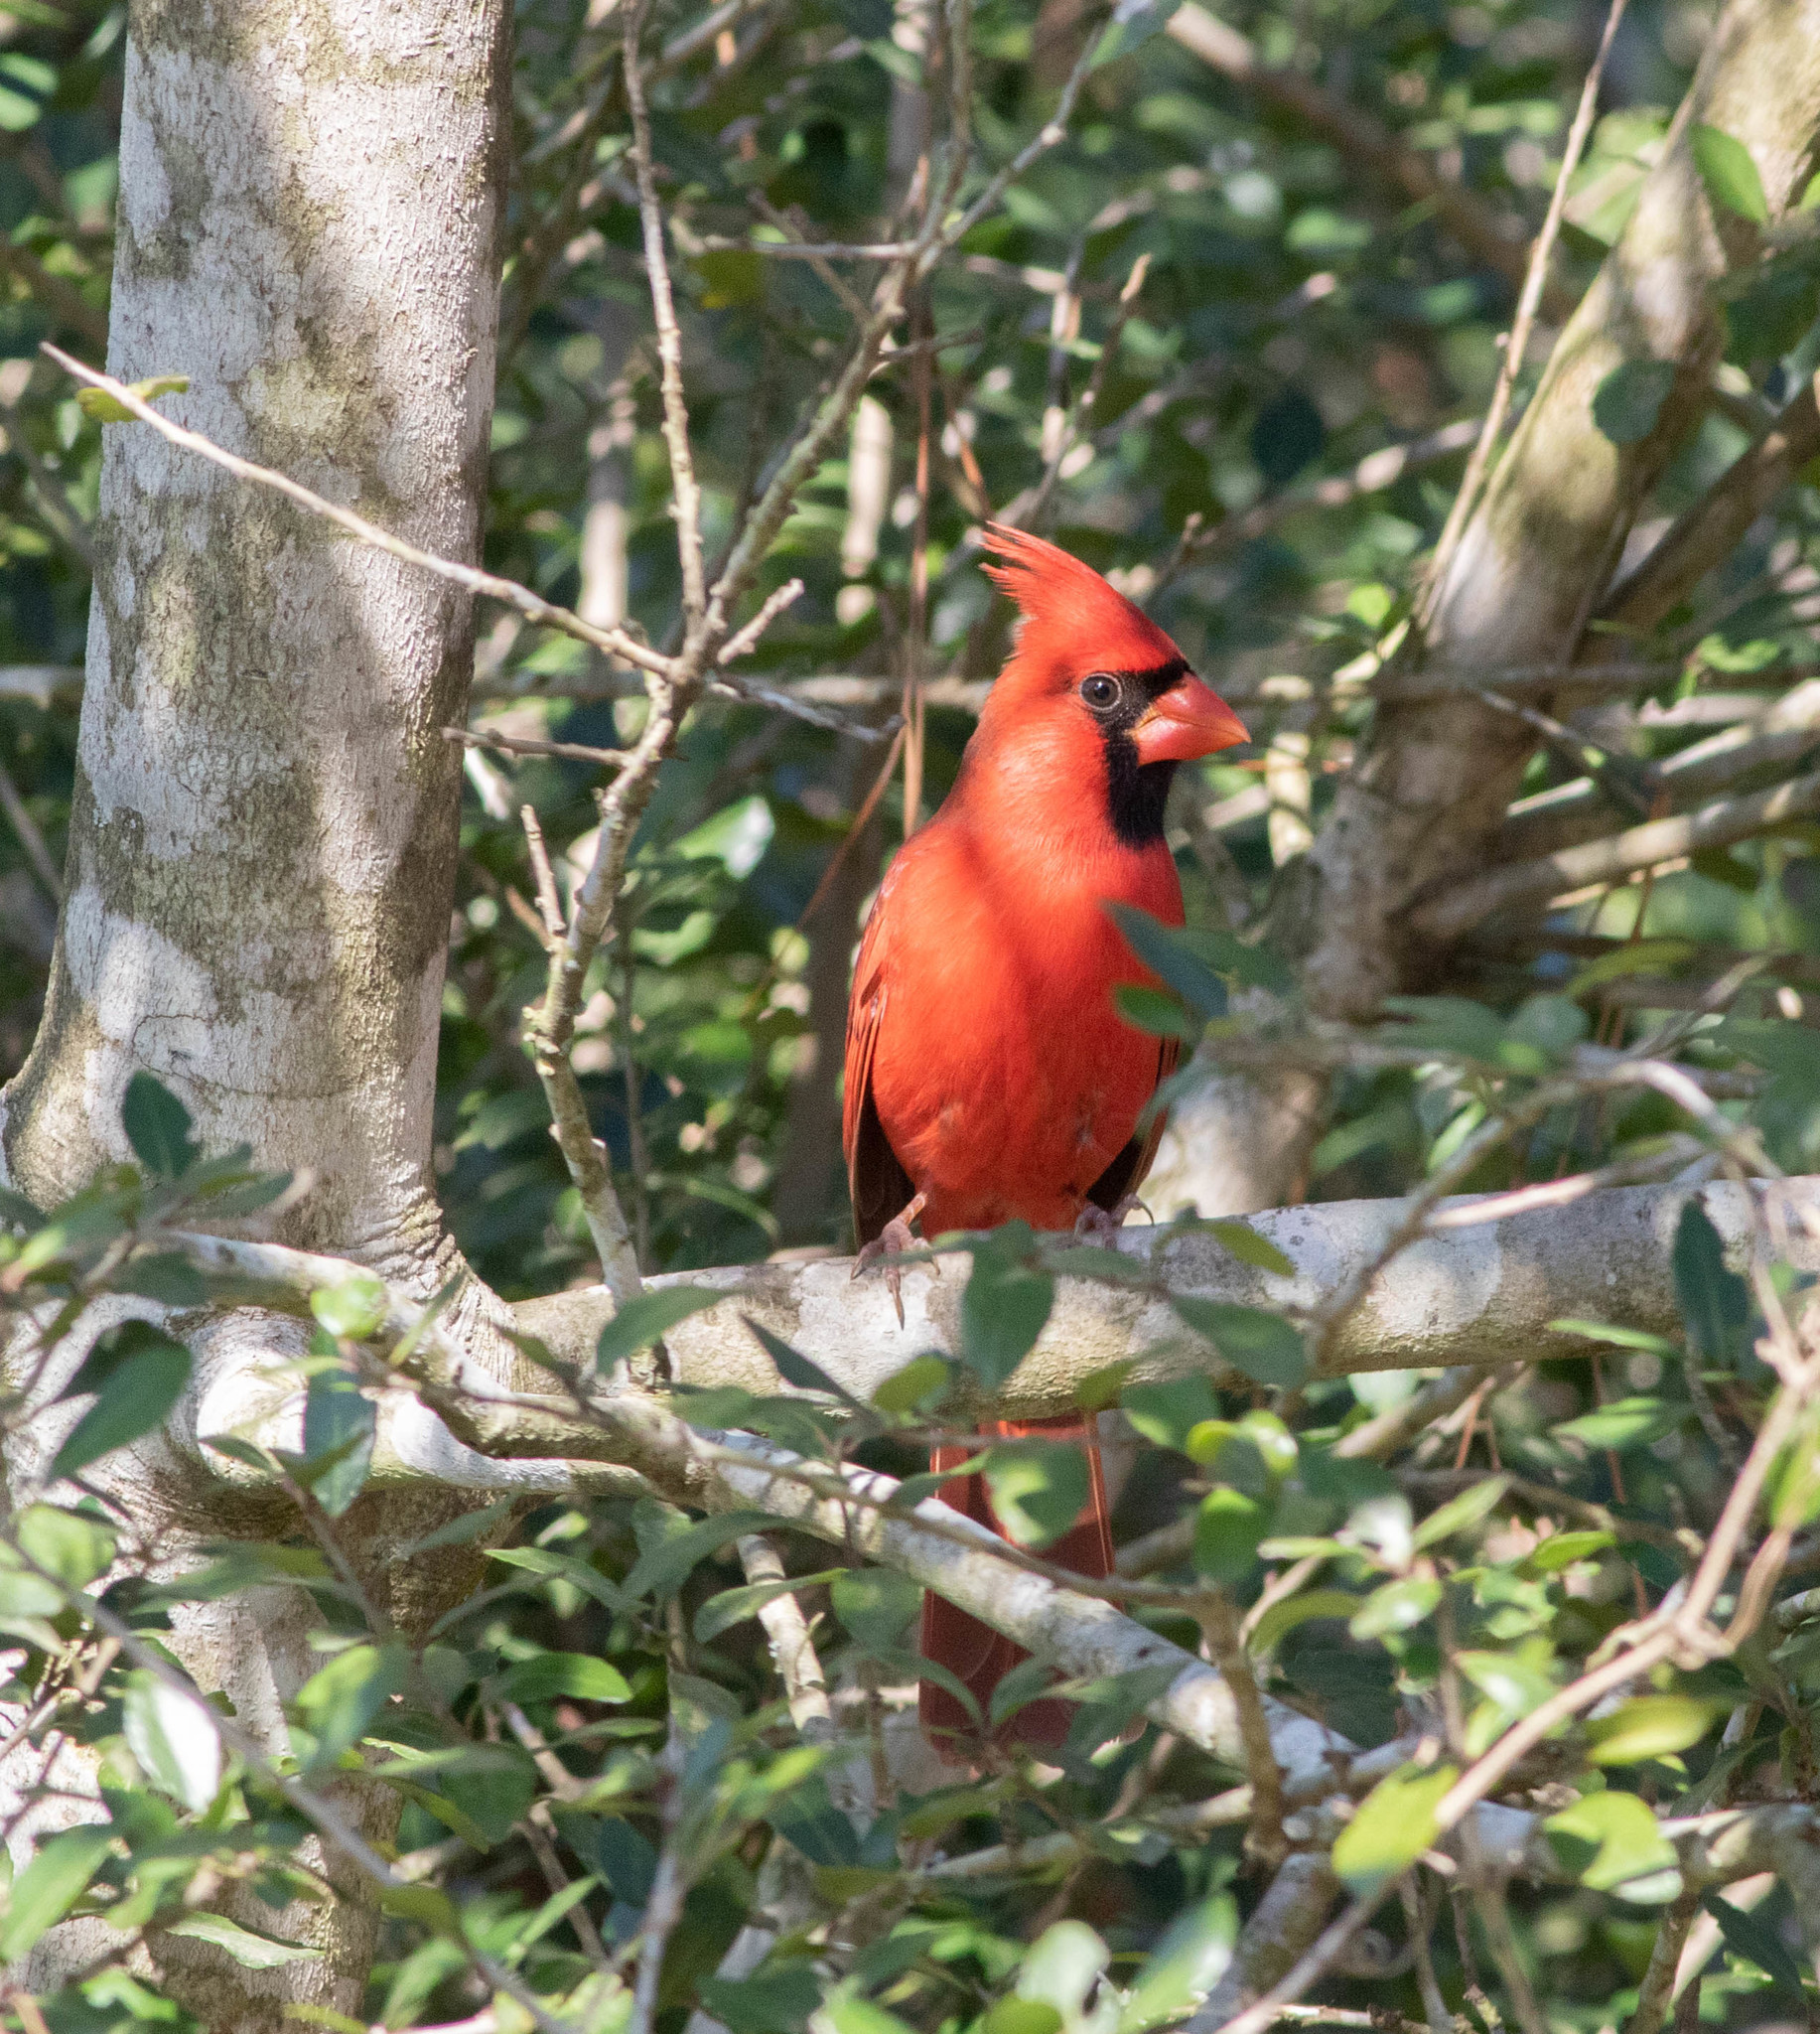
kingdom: Animalia
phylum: Chordata
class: Aves
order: Passeriformes
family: Cardinalidae
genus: Cardinalis
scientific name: Cardinalis cardinalis
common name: Northern cardinal
